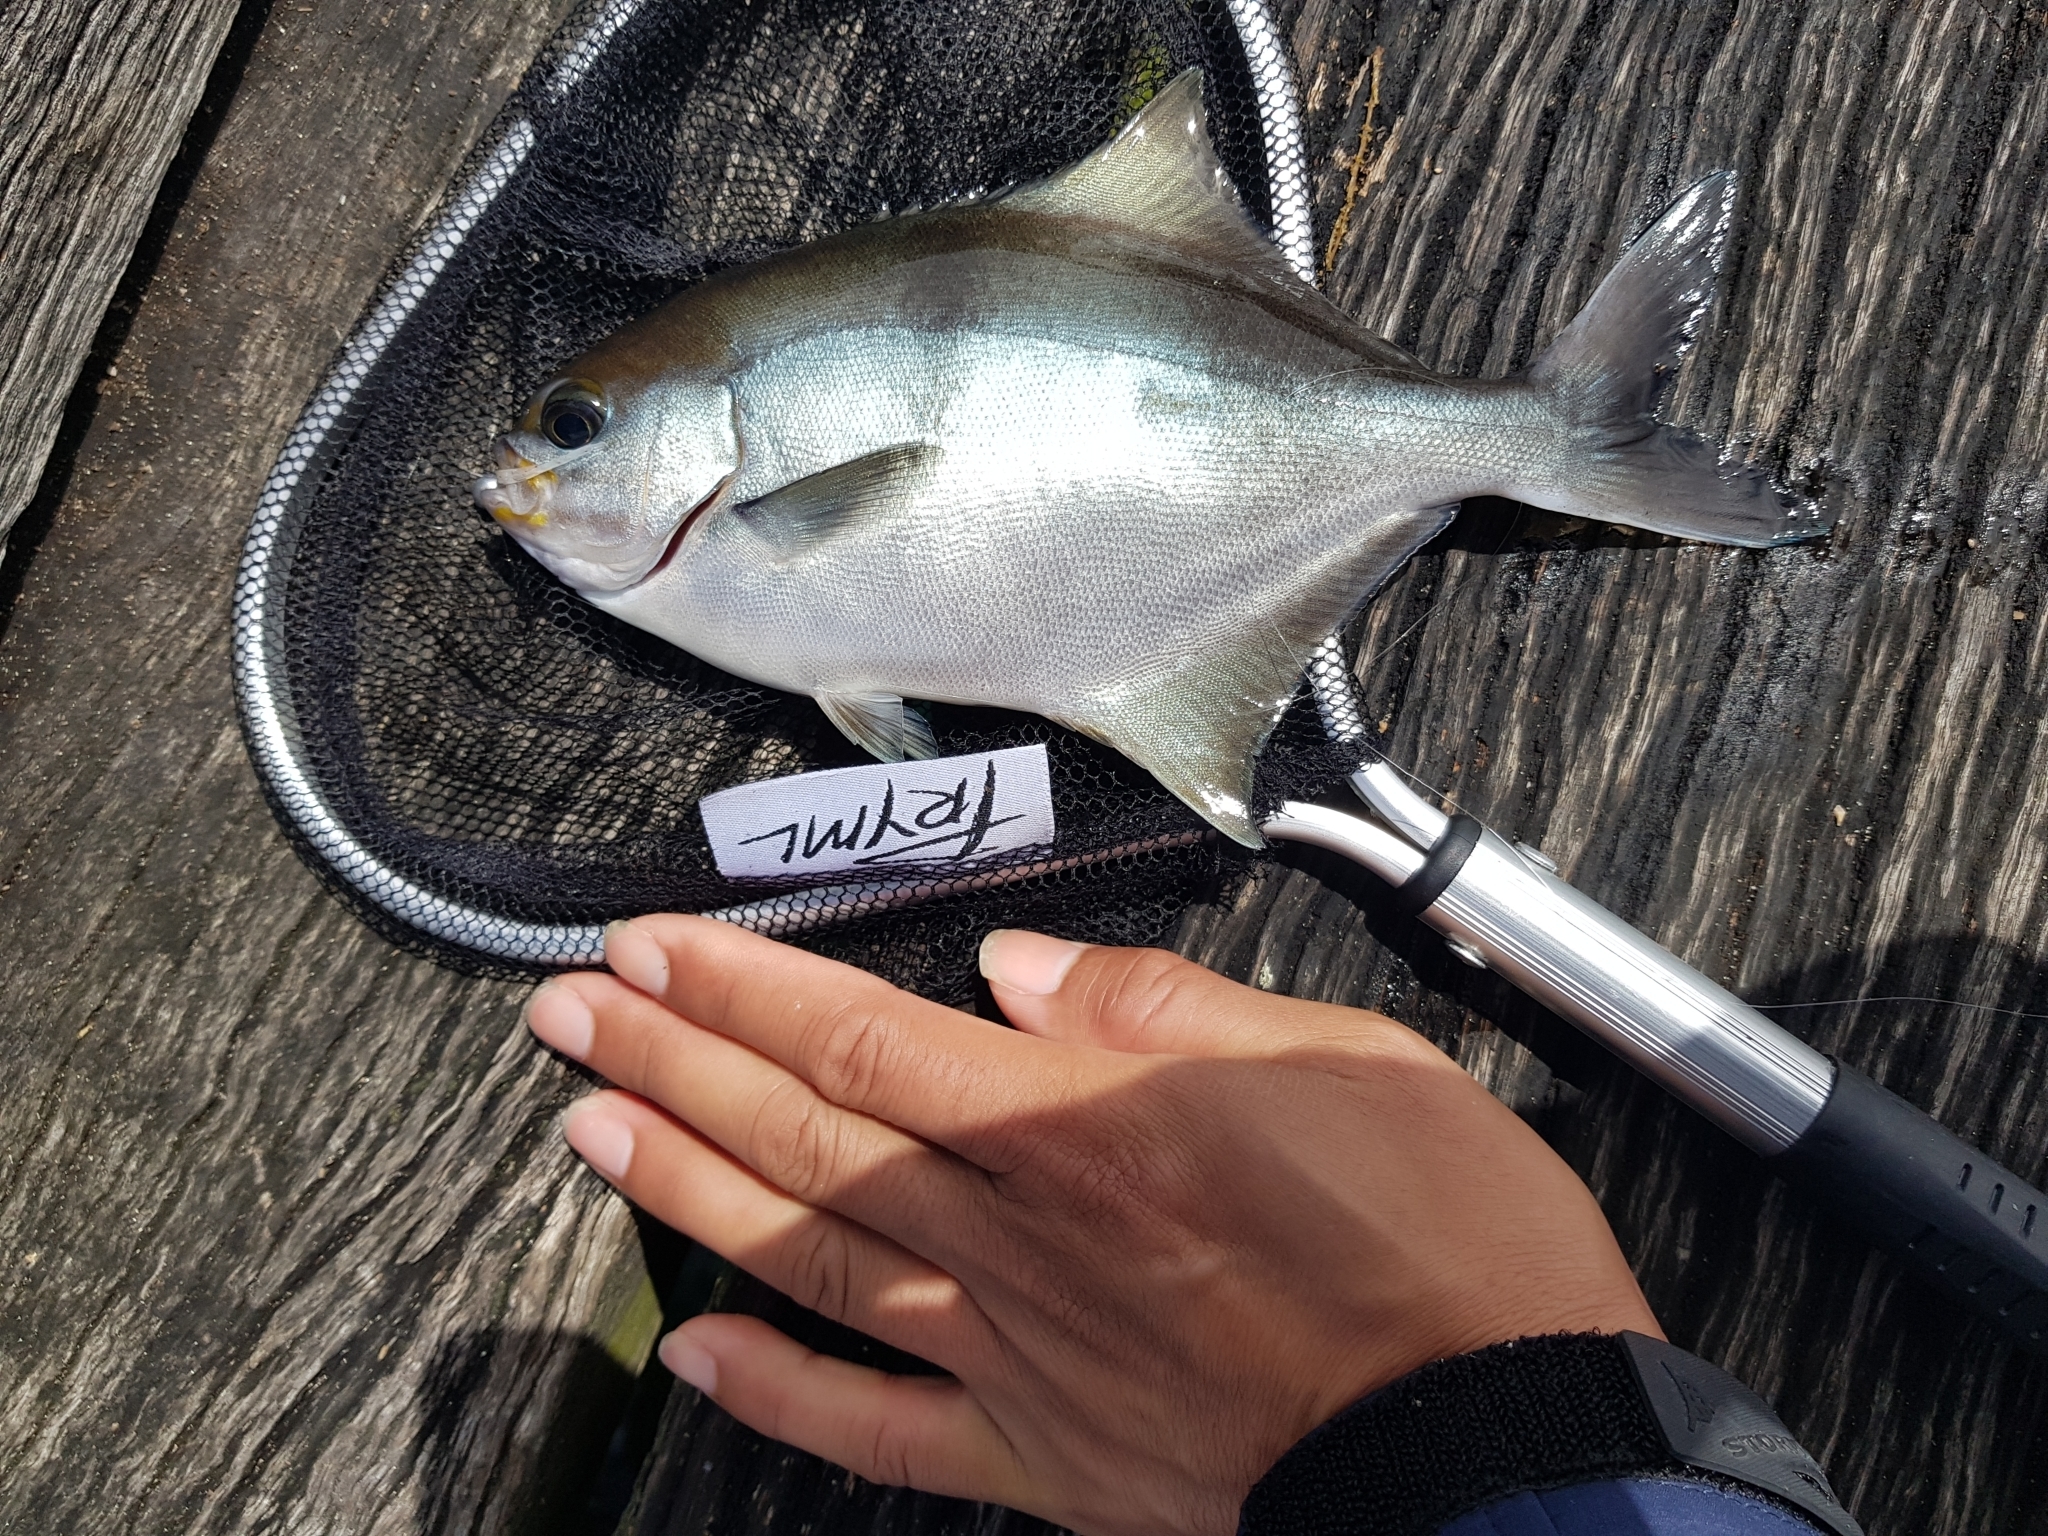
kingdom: Animalia
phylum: Chordata
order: Perciformes
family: Kyphosidae
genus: Scorpis
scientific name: Scorpis aequipinnis
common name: Sea sweep
